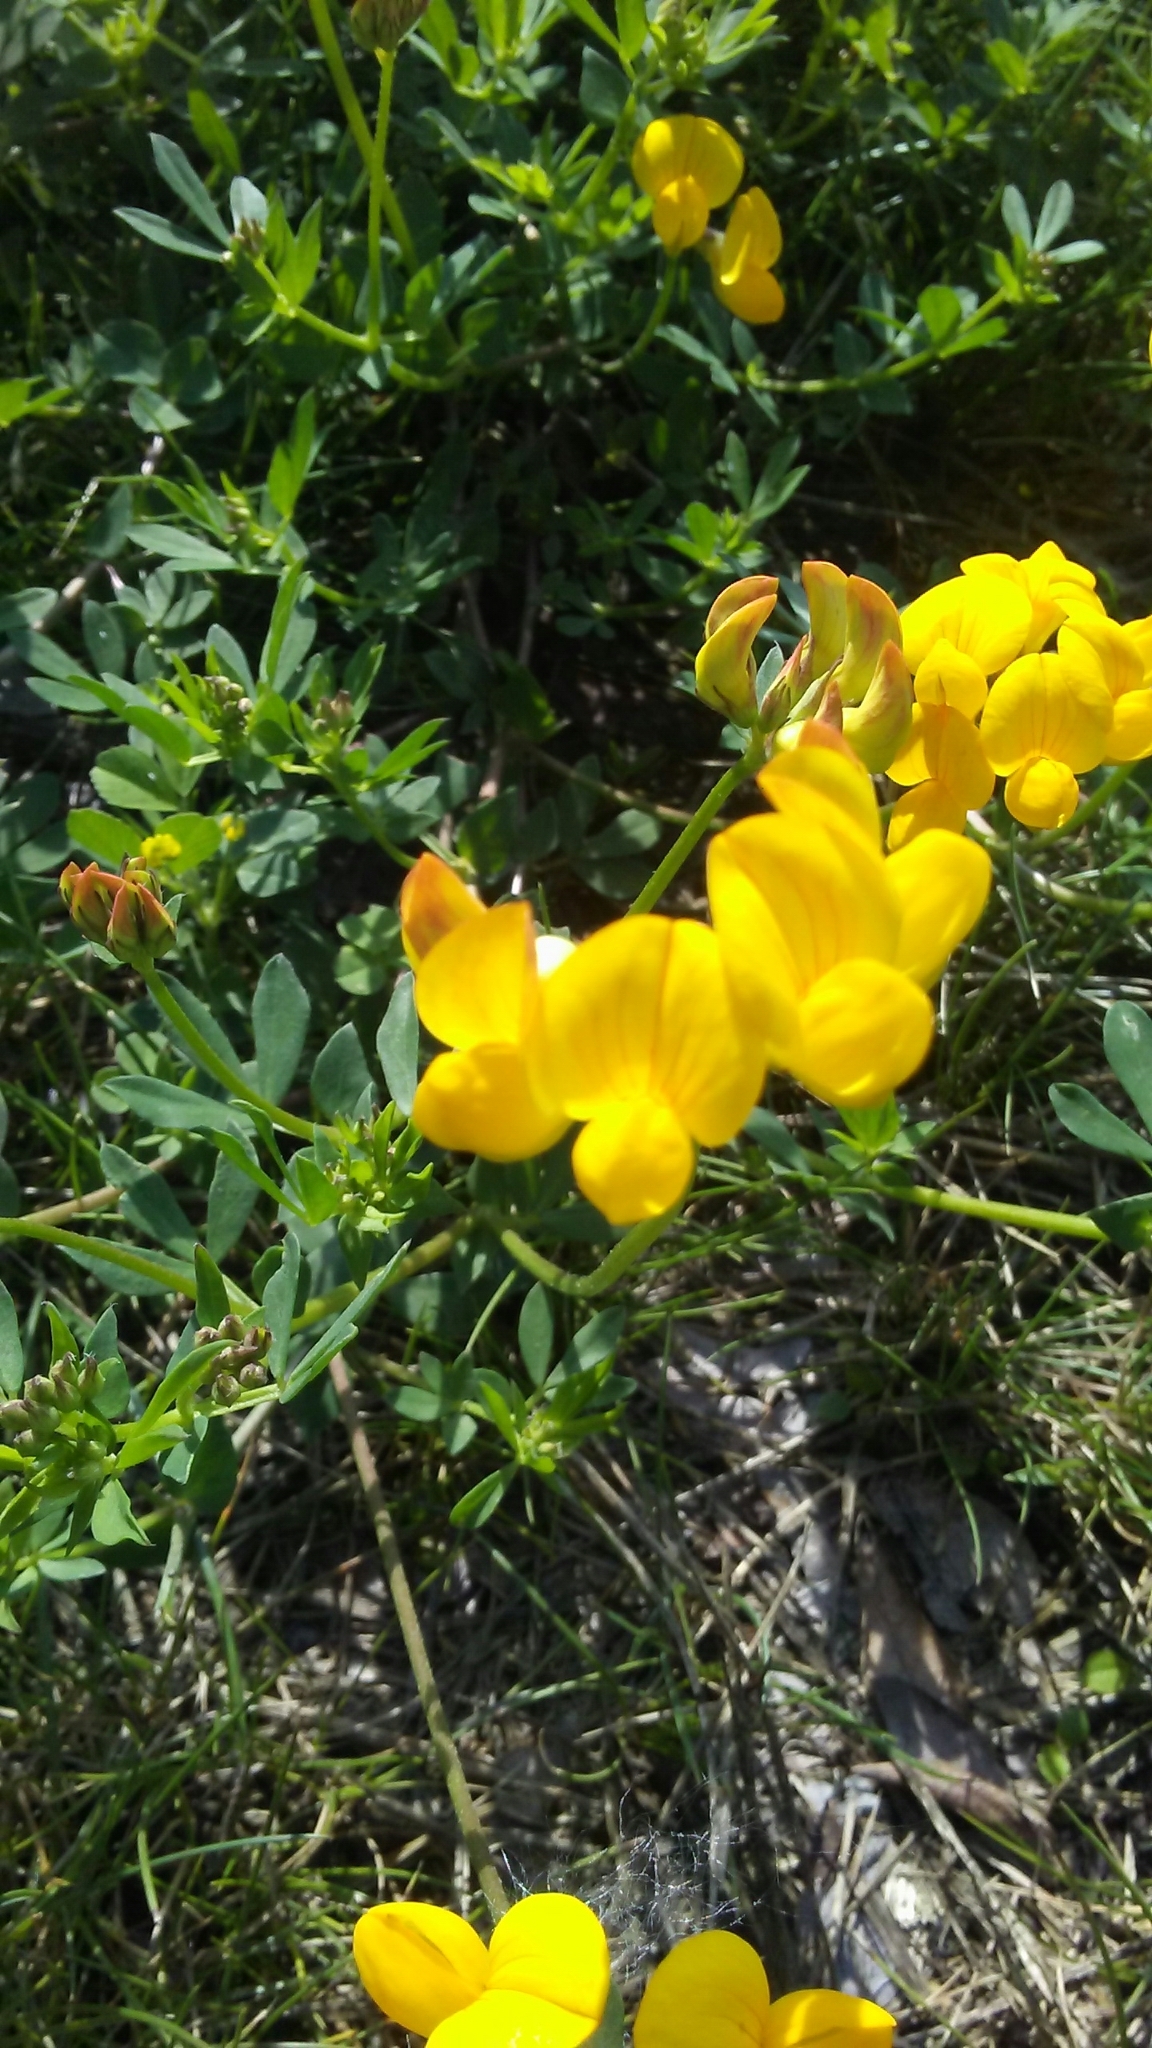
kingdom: Plantae
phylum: Tracheophyta
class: Magnoliopsida
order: Fabales
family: Fabaceae
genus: Lotus
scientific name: Lotus corniculatus
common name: Common bird's-foot-trefoil
